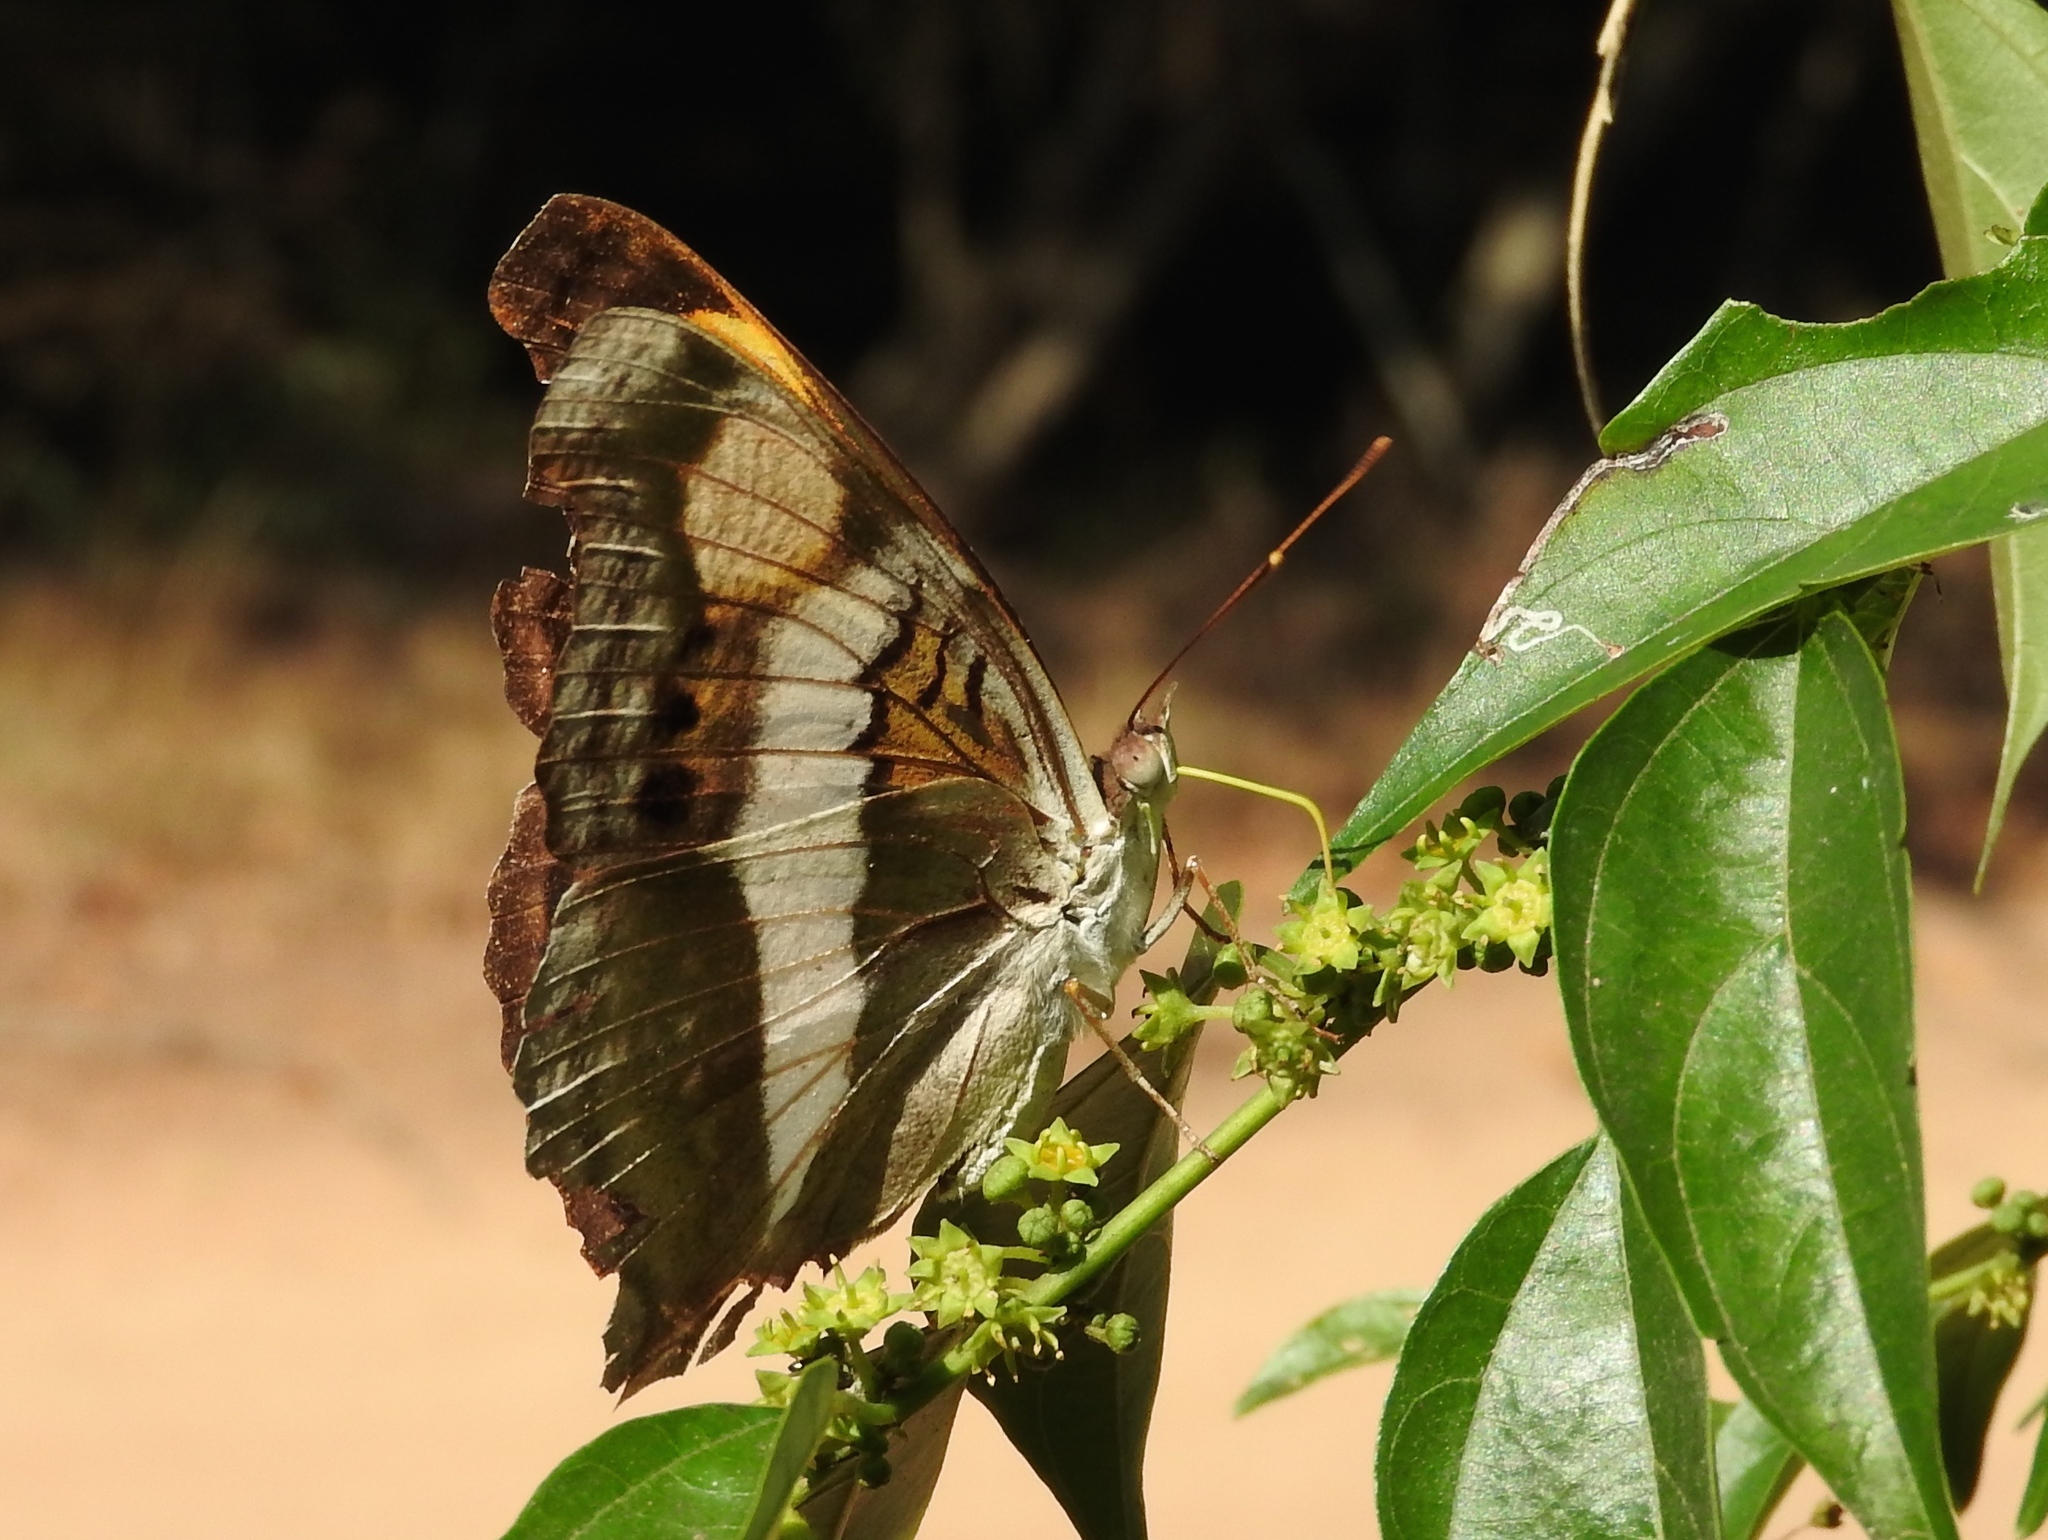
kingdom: Animalia
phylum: Arthropoda
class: Insecta
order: Lepidoptera
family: Nymphalidae
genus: Doxocopa
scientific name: Doxocopa laure
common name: Silver emperor
